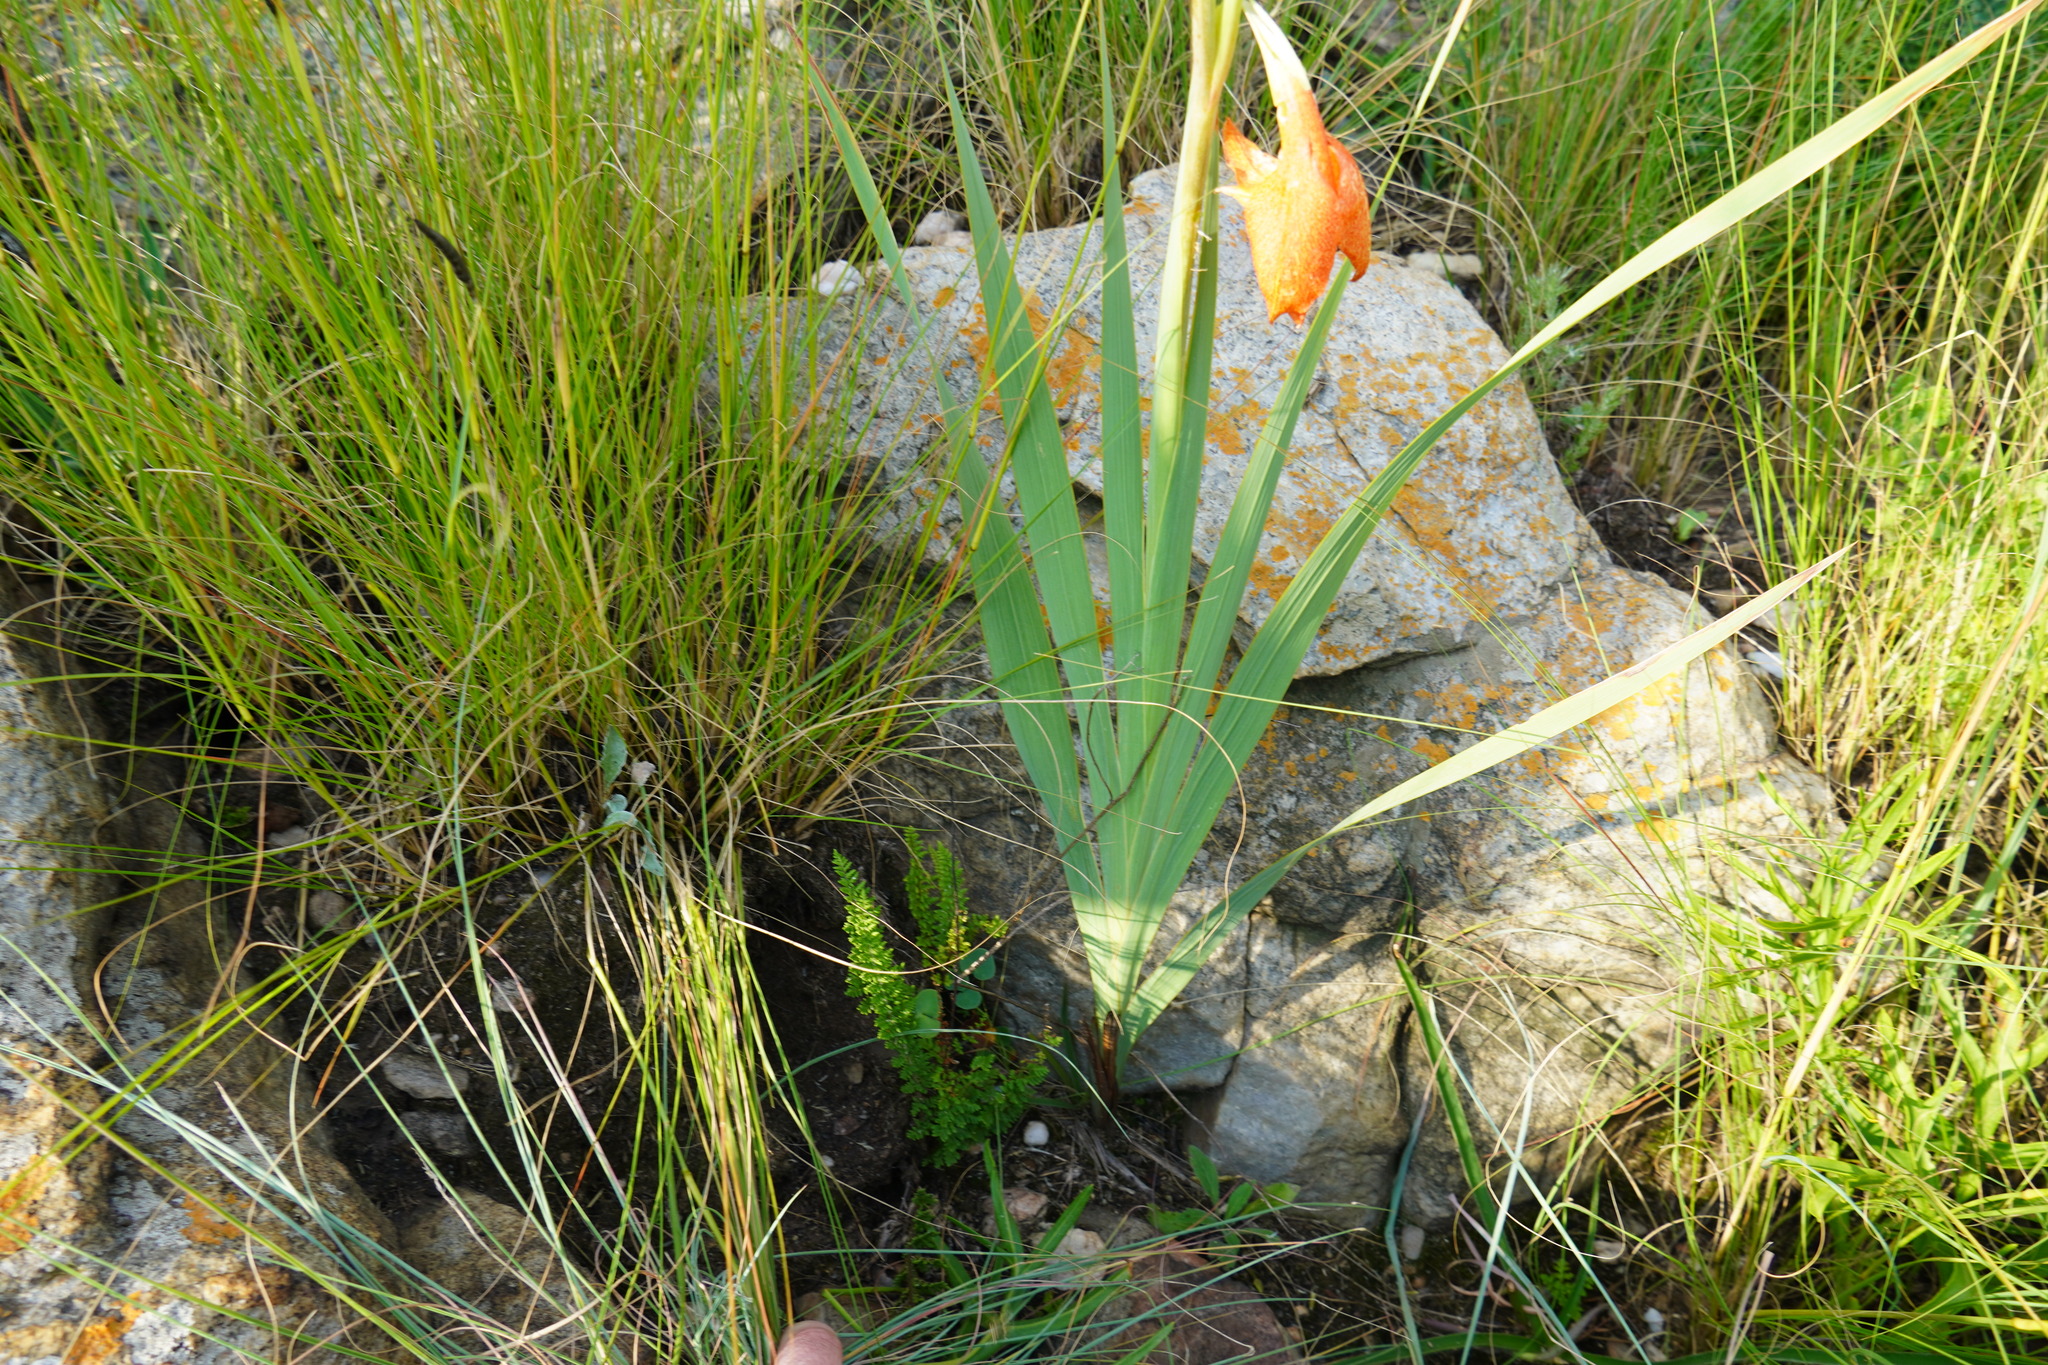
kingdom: Plantae
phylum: Tracheophyta
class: Liliopsida
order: Asparagales
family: Iridaceae
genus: Gladiolus
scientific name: Gladiolus dalenii
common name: Cornflag
